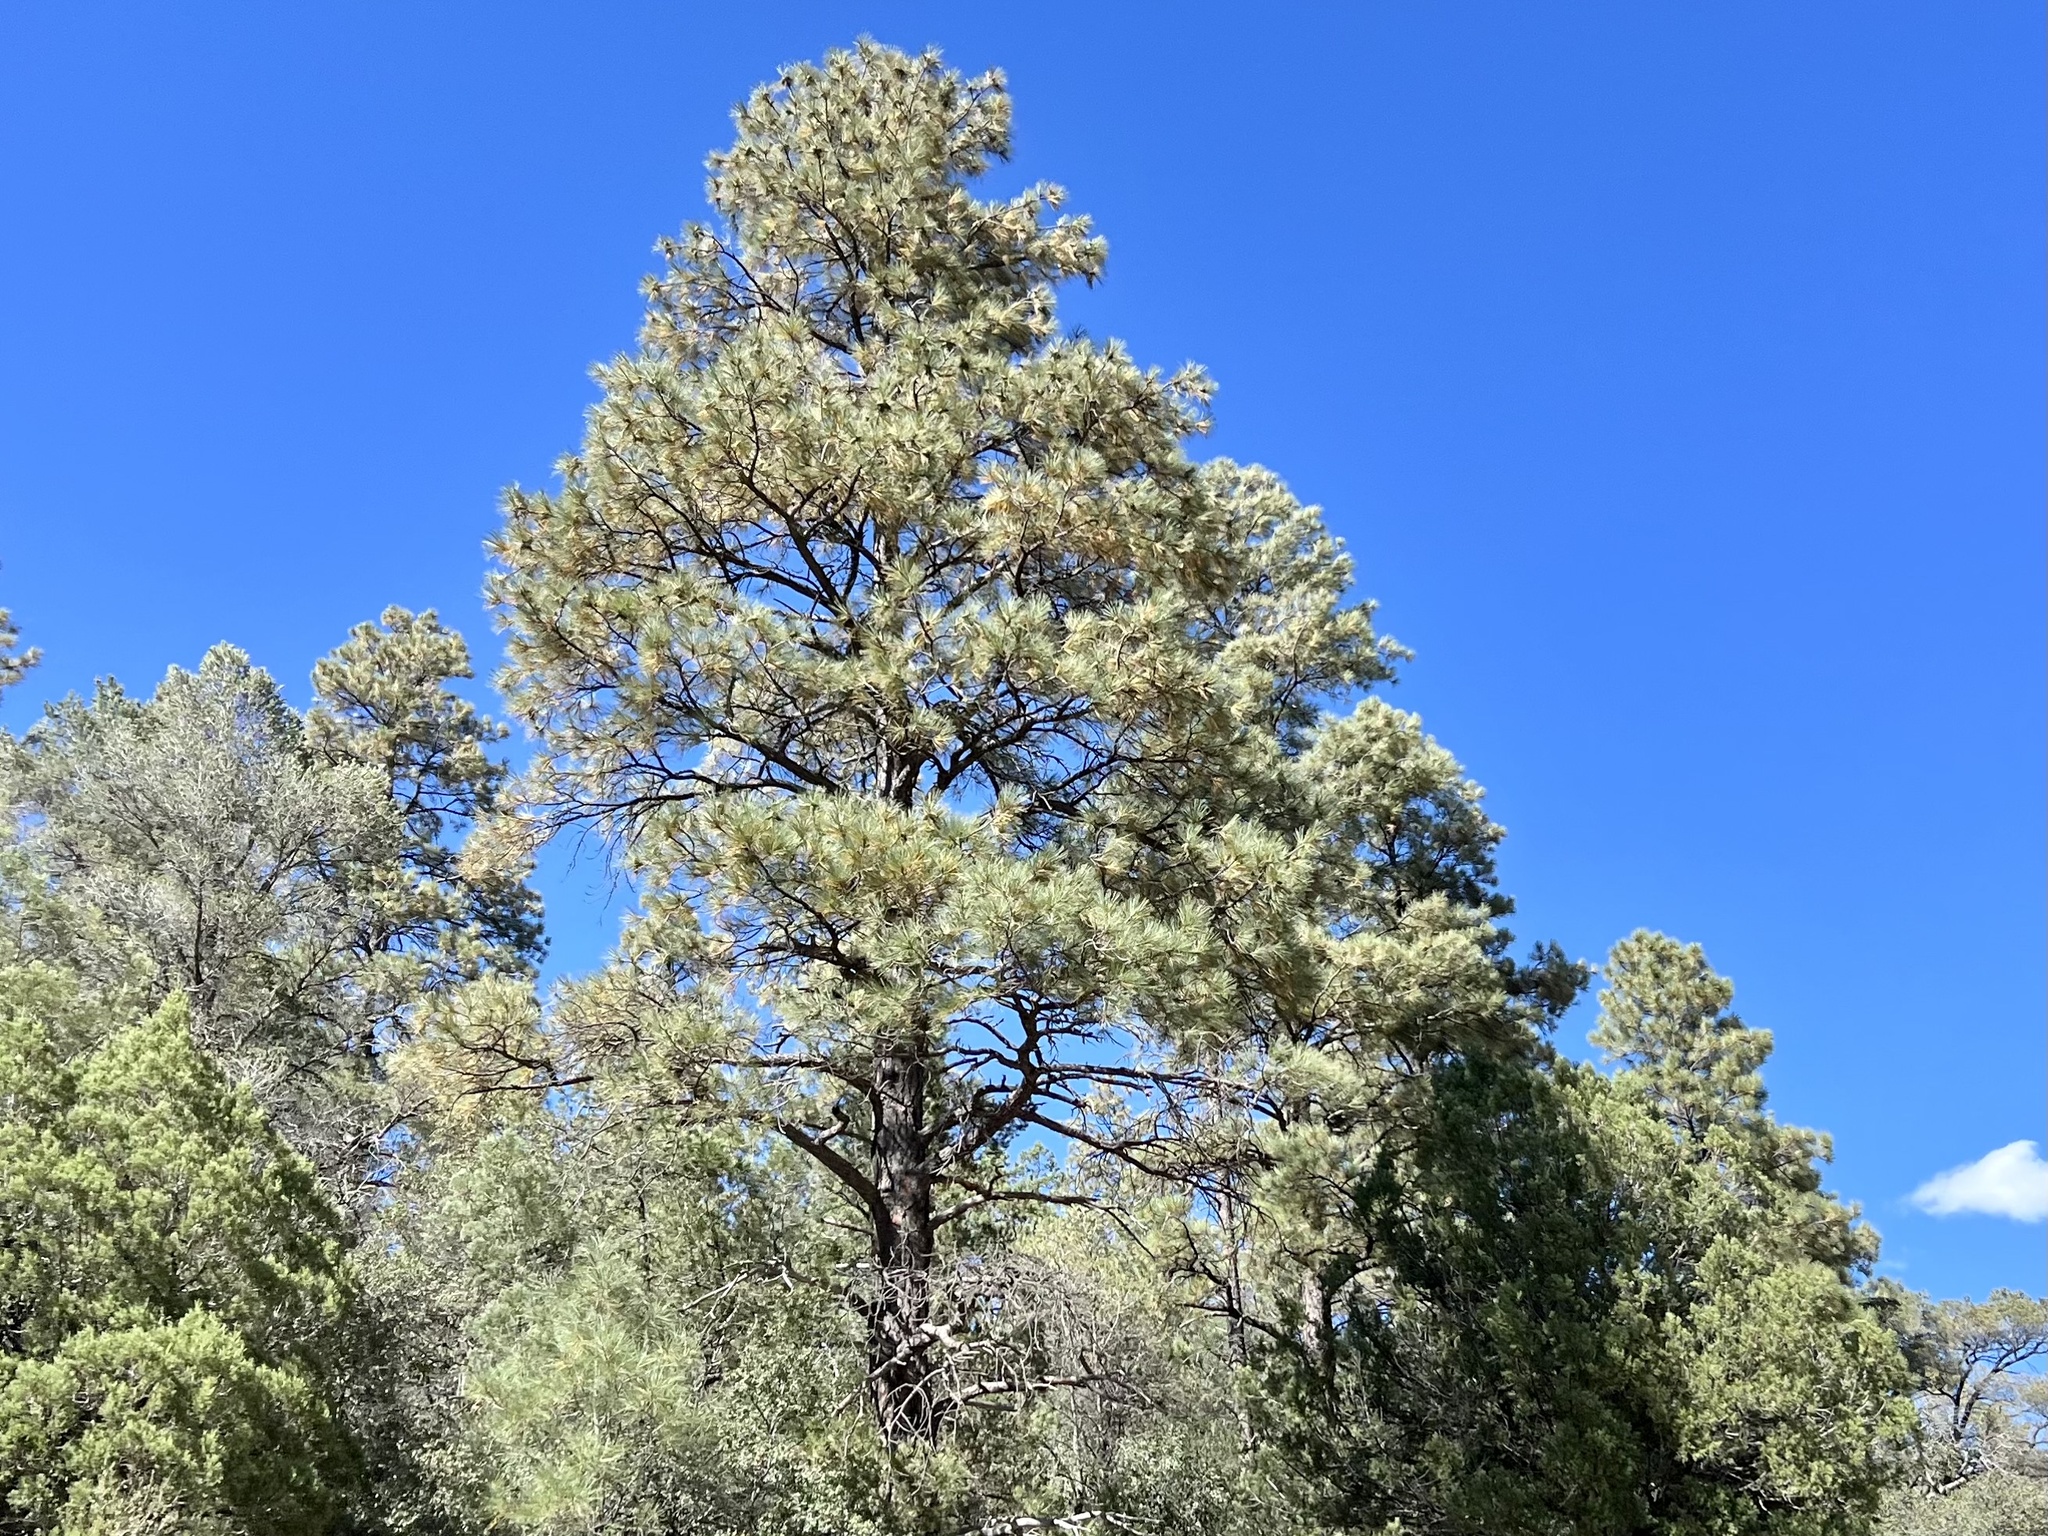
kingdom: Plantae
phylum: Tracheophyta
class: Pinopsida
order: Pinales
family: Pinaceae
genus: Pinus
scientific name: Pinus ponderosa
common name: Western yellow-pine
